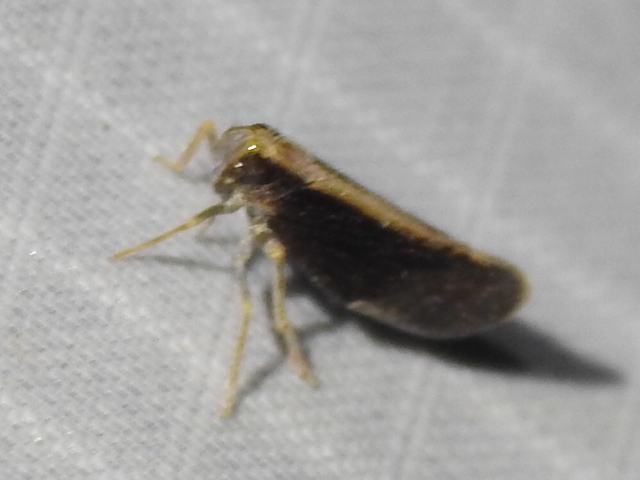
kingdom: Animalia
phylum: Arthropoda
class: Insecta
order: Hemiptera
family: Cixiidae
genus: Pintalia
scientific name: Pintalia delicata
